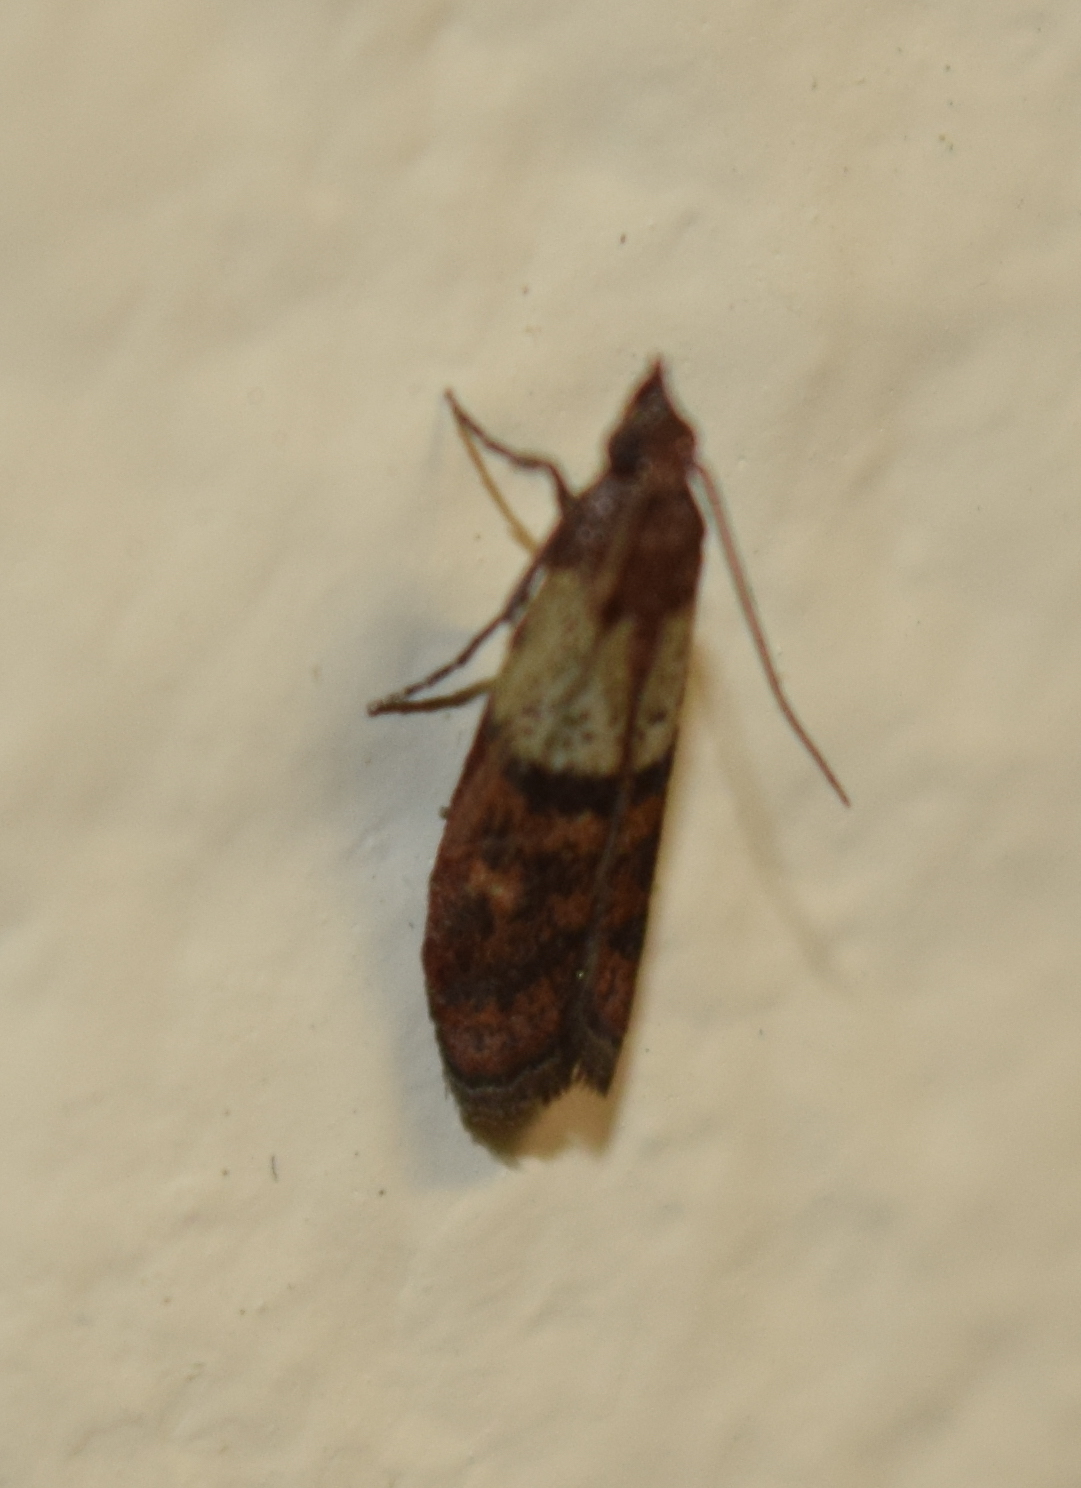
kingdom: Animalia
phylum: Arthropoda
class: Insecta
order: Lepidoptera
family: Pyralidae
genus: Plodia
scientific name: Plodia interpunctella
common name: Indian meal moth
